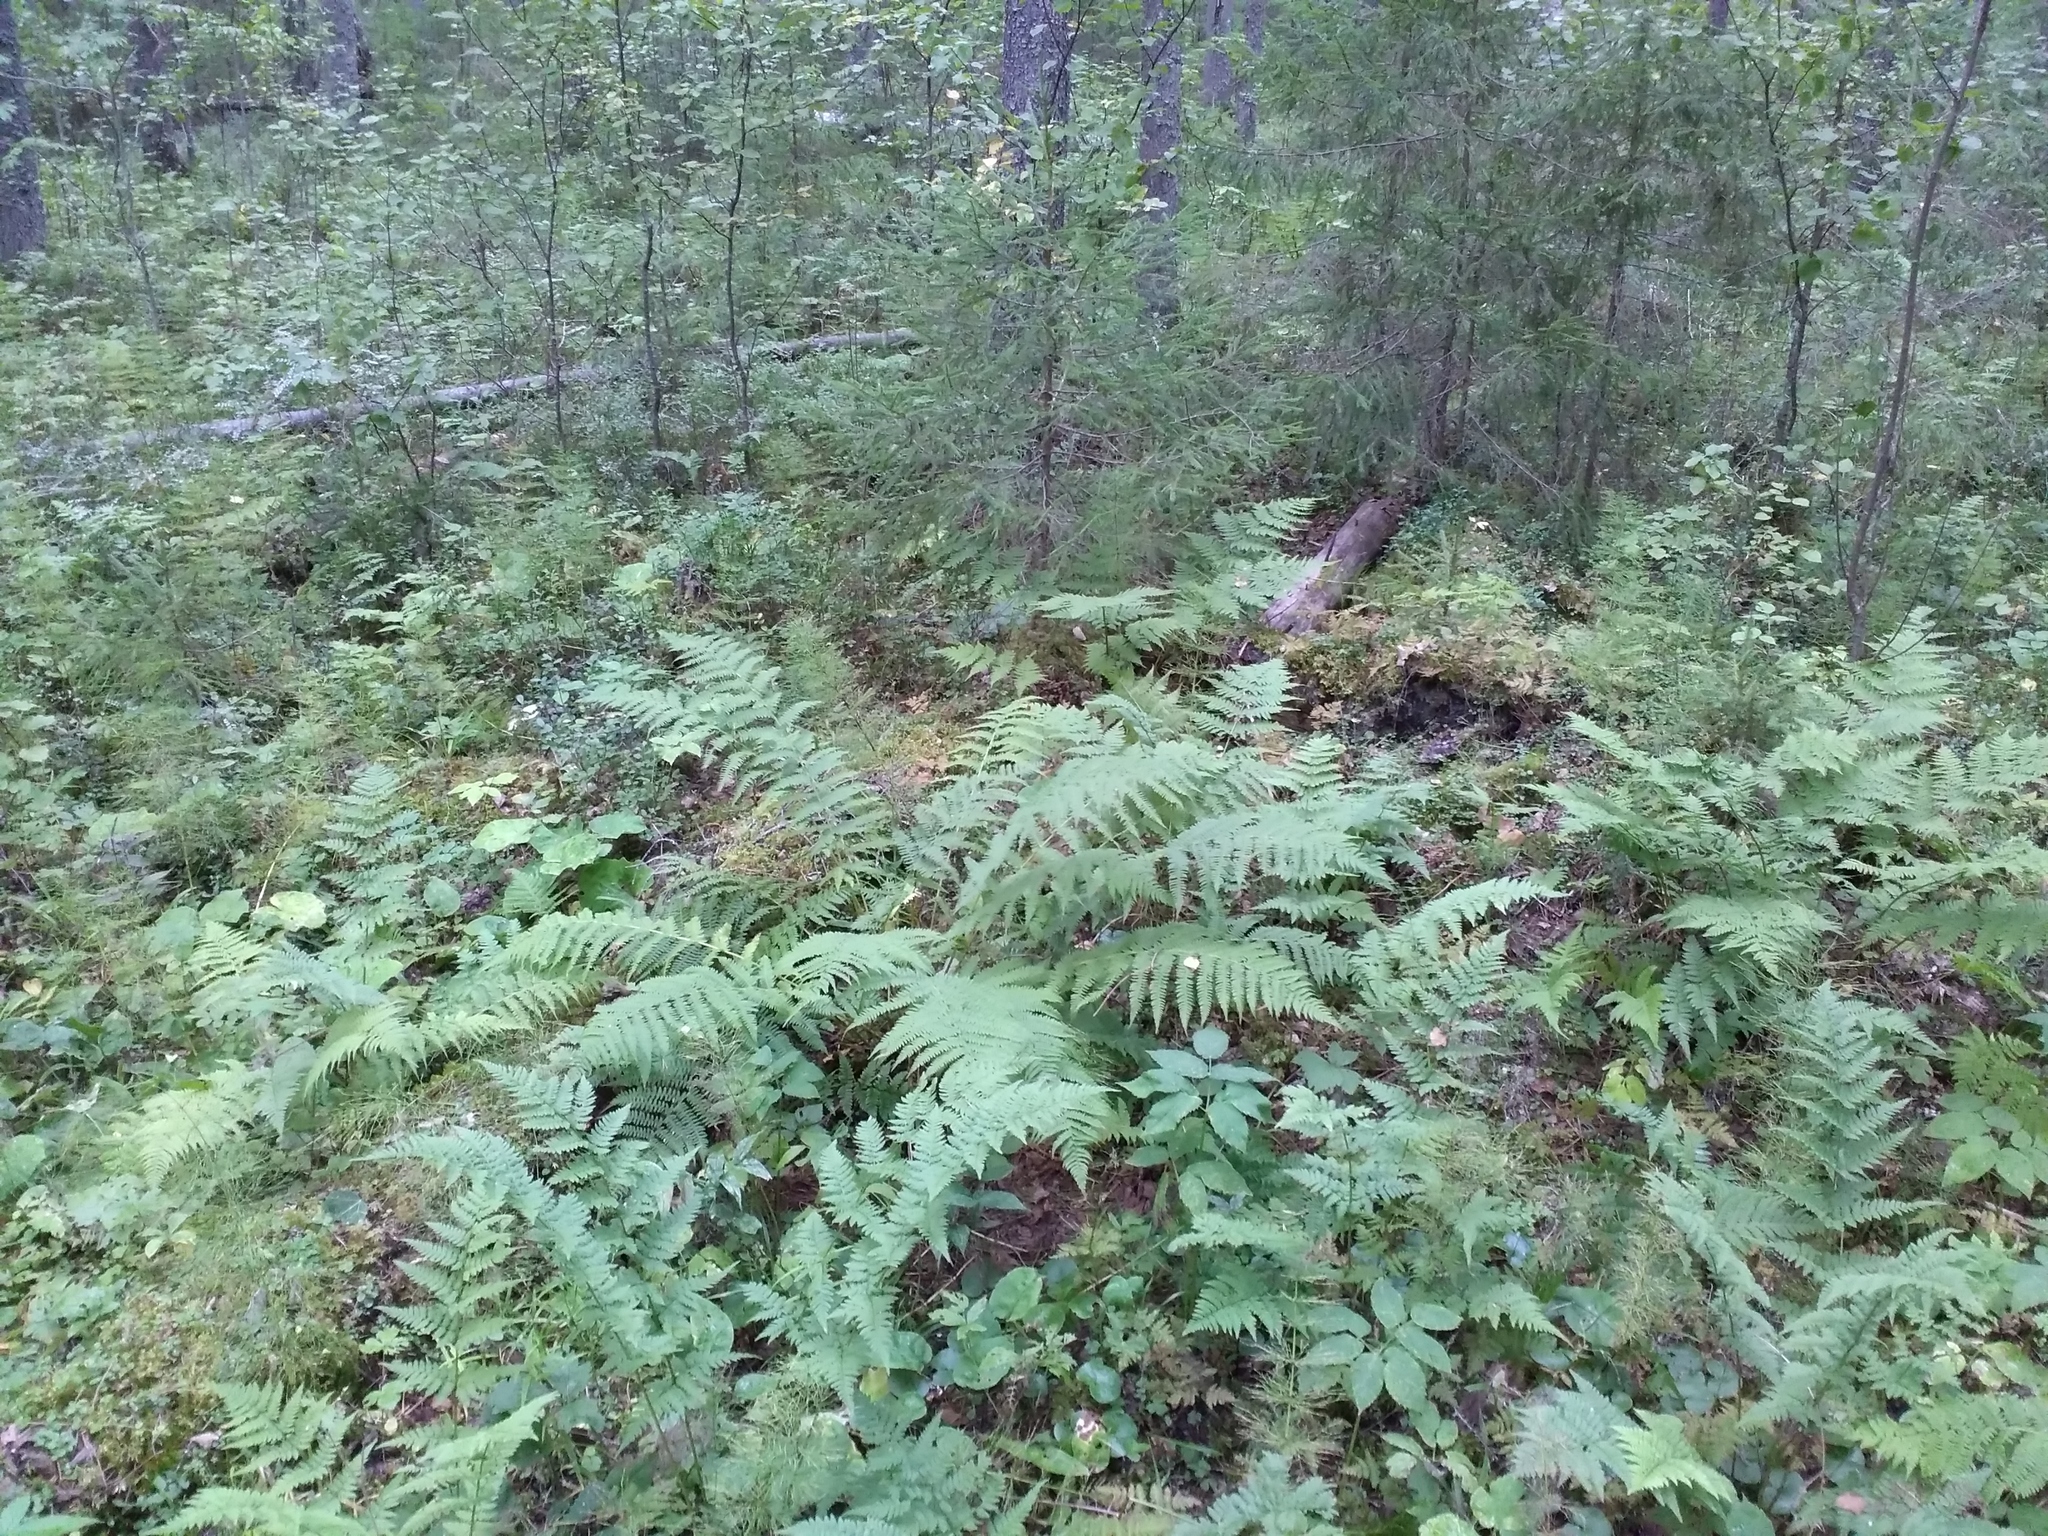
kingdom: Plantae
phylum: Tracheophyta
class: Polypodiopsida
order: Polypodiales
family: Athyriaceae
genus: Athyrium
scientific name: Athyrium filix-femina
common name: Lady fern
